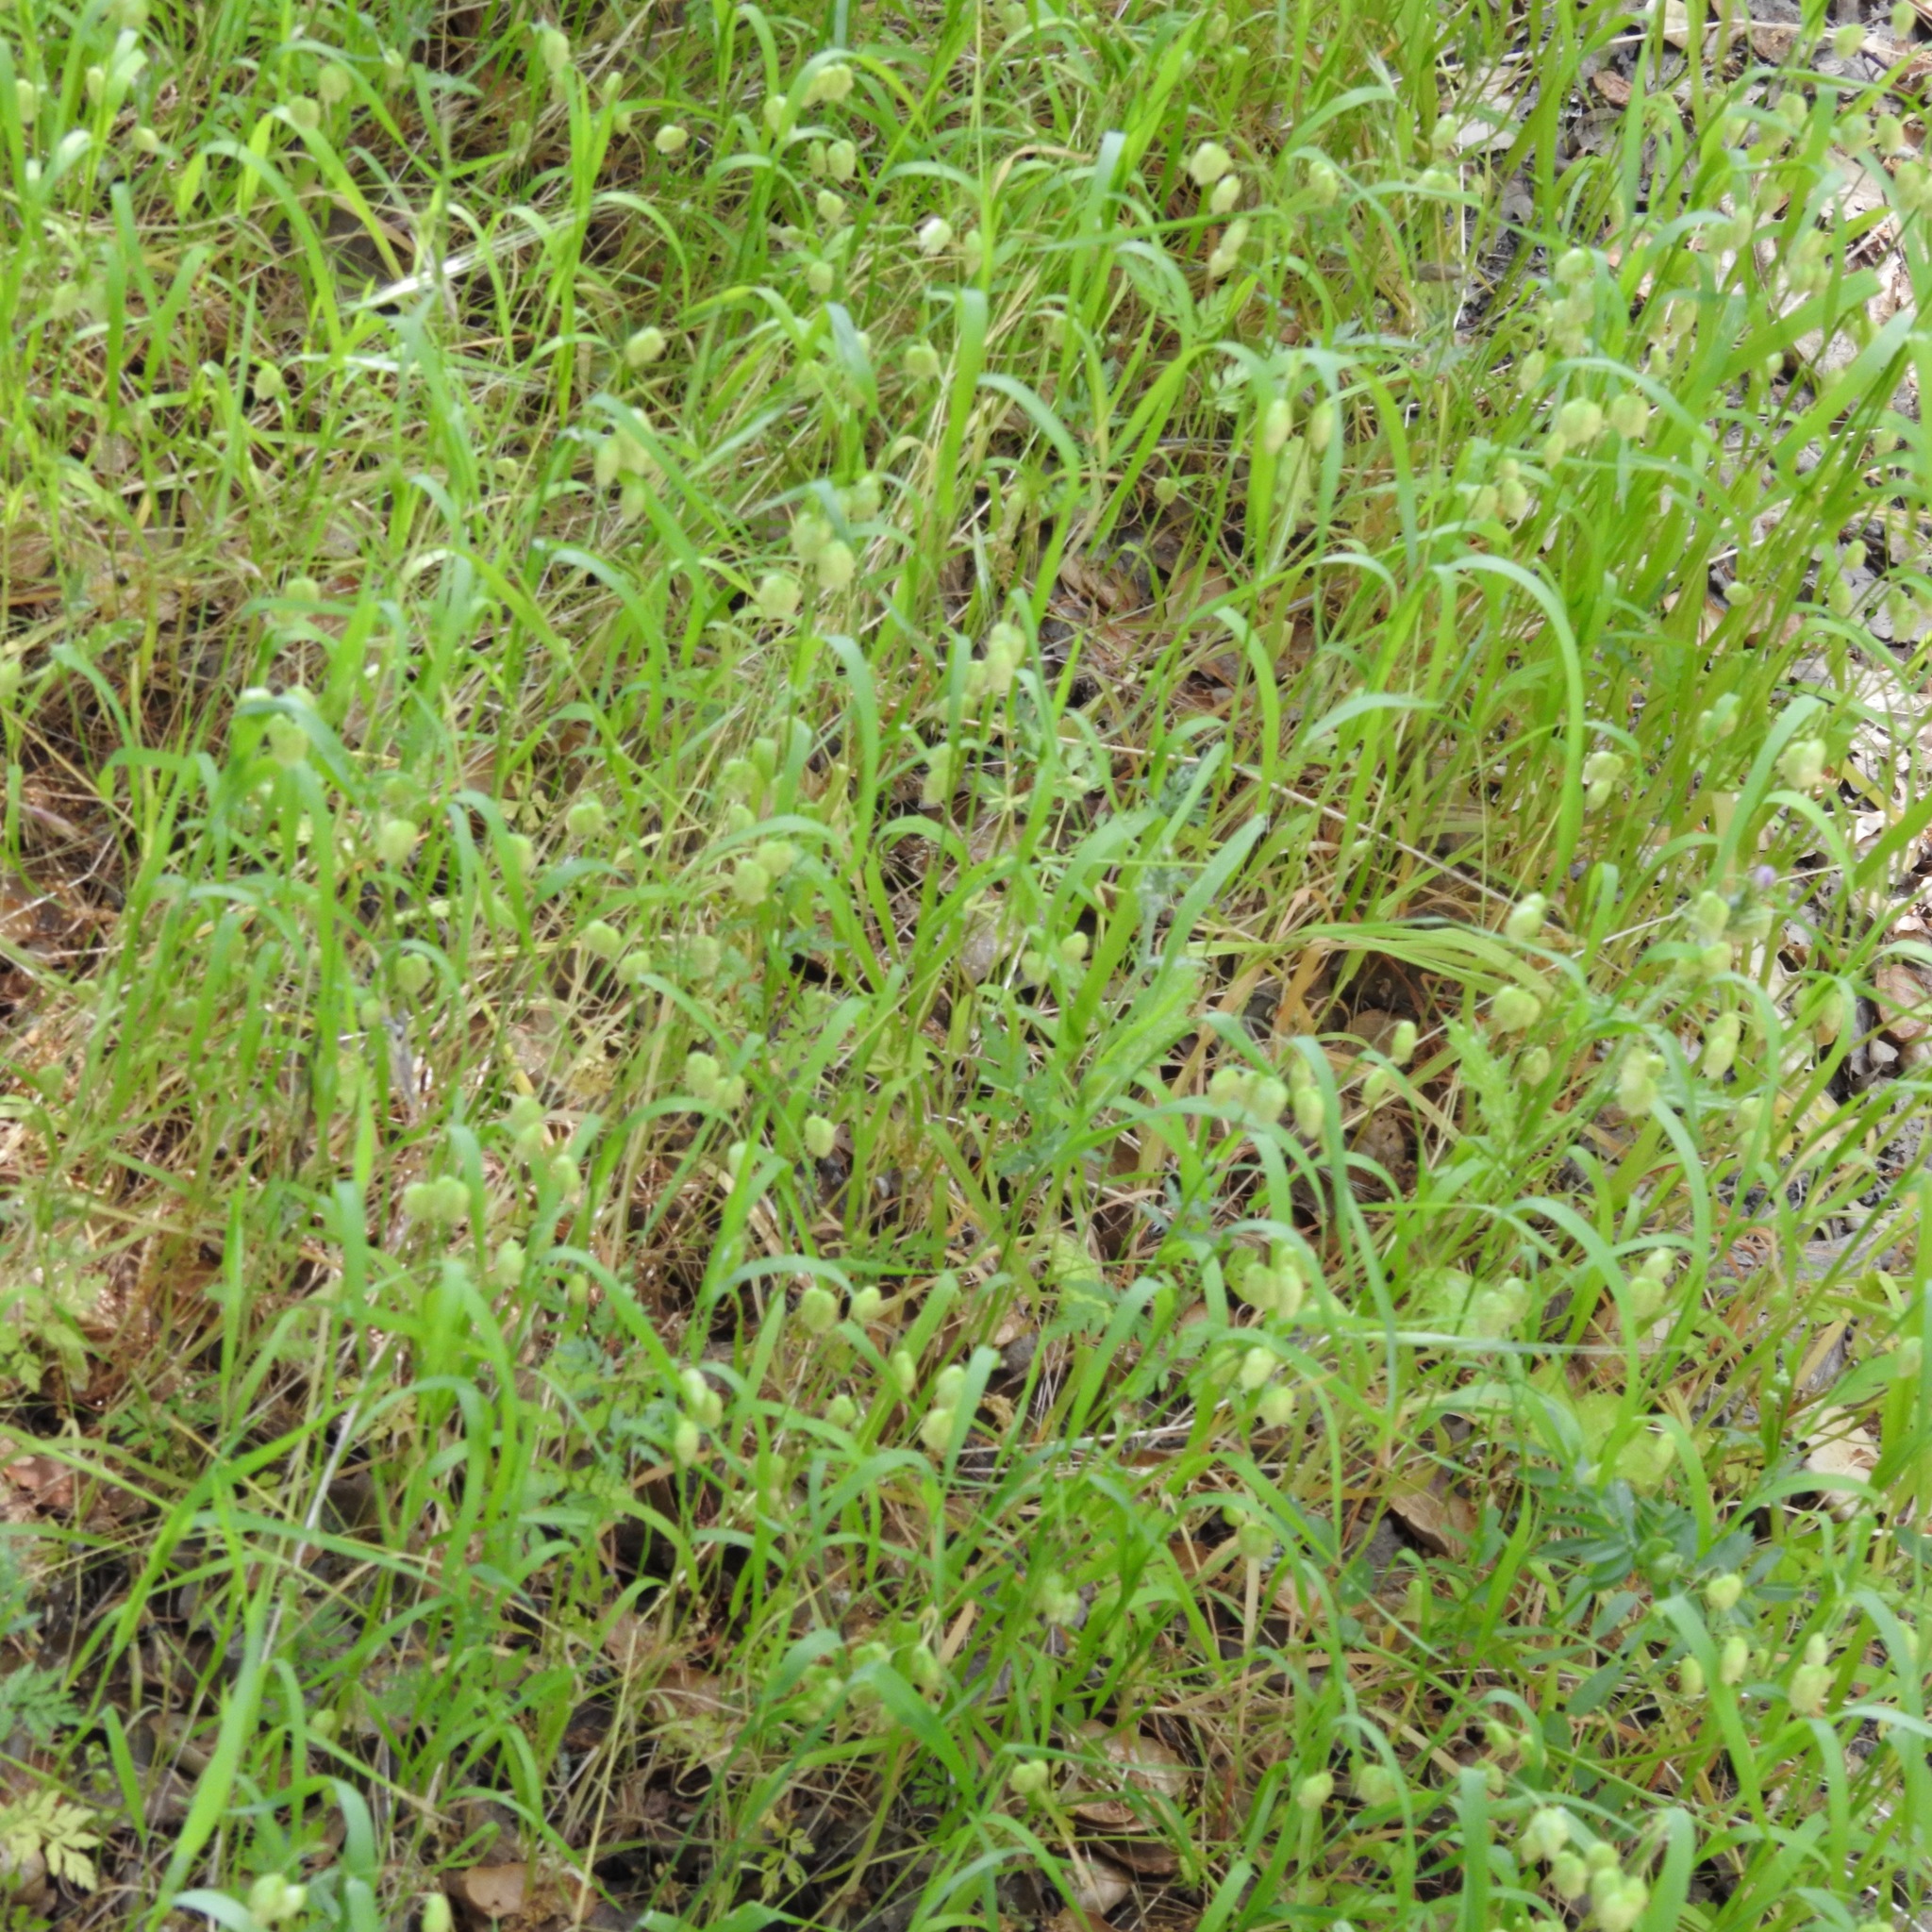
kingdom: Plantae
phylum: Tracheophyta
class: Liliopsida
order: Poales
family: Poaceae
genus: Briza
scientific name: Briza maxima
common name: Big quakinggrass
